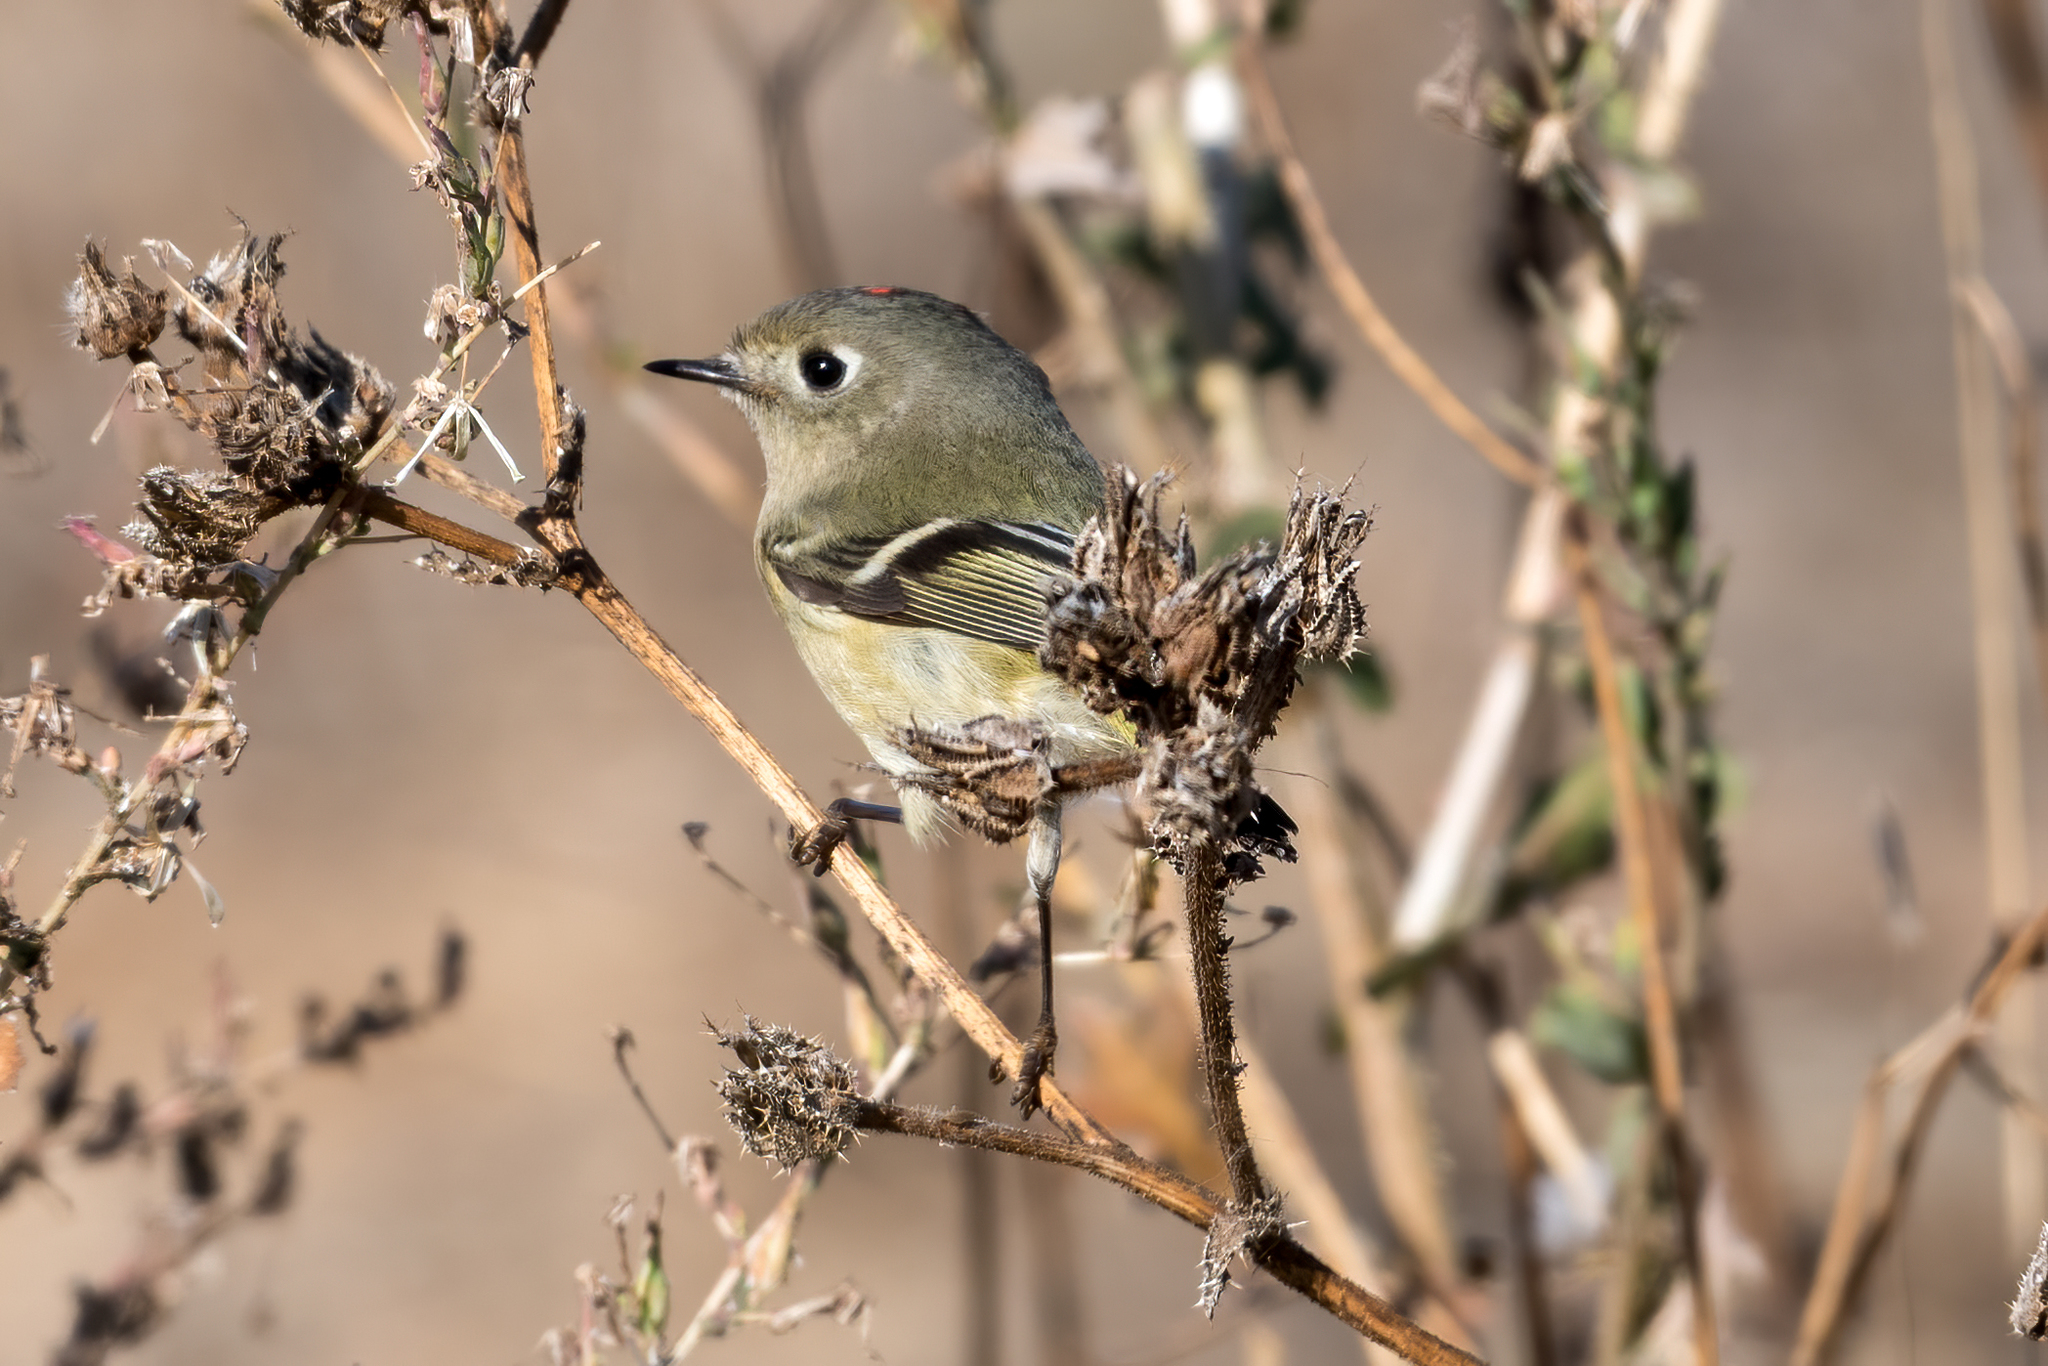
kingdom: Animalia
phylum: Chordata
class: Aves
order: Passeriformes
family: Regulidae
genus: Regulus
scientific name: Regulus calendula
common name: Ruby-crowned kinglet
